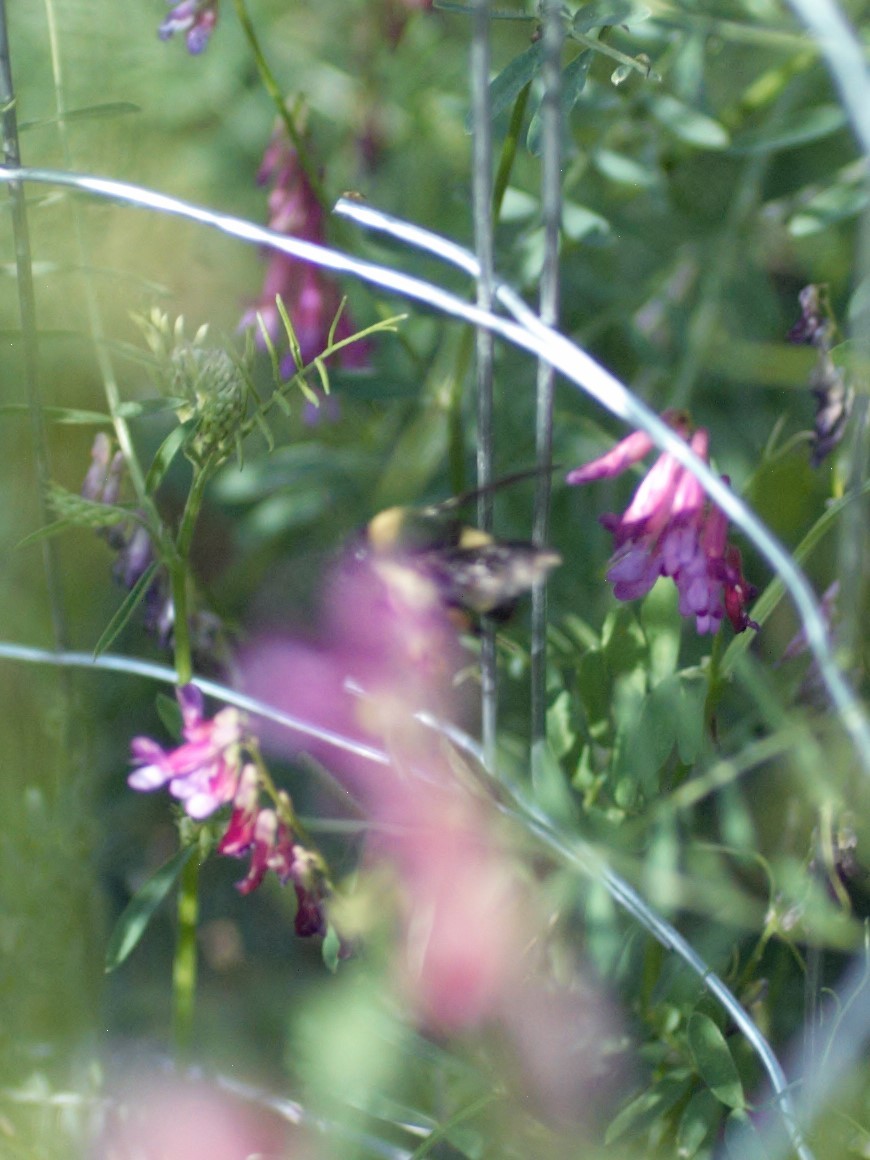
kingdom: Animalia
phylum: Arthropoda
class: Insecta
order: Hymenoptera
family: Apidae
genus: Bombus
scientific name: Bombus pensylvanicus
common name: Bumble bee
